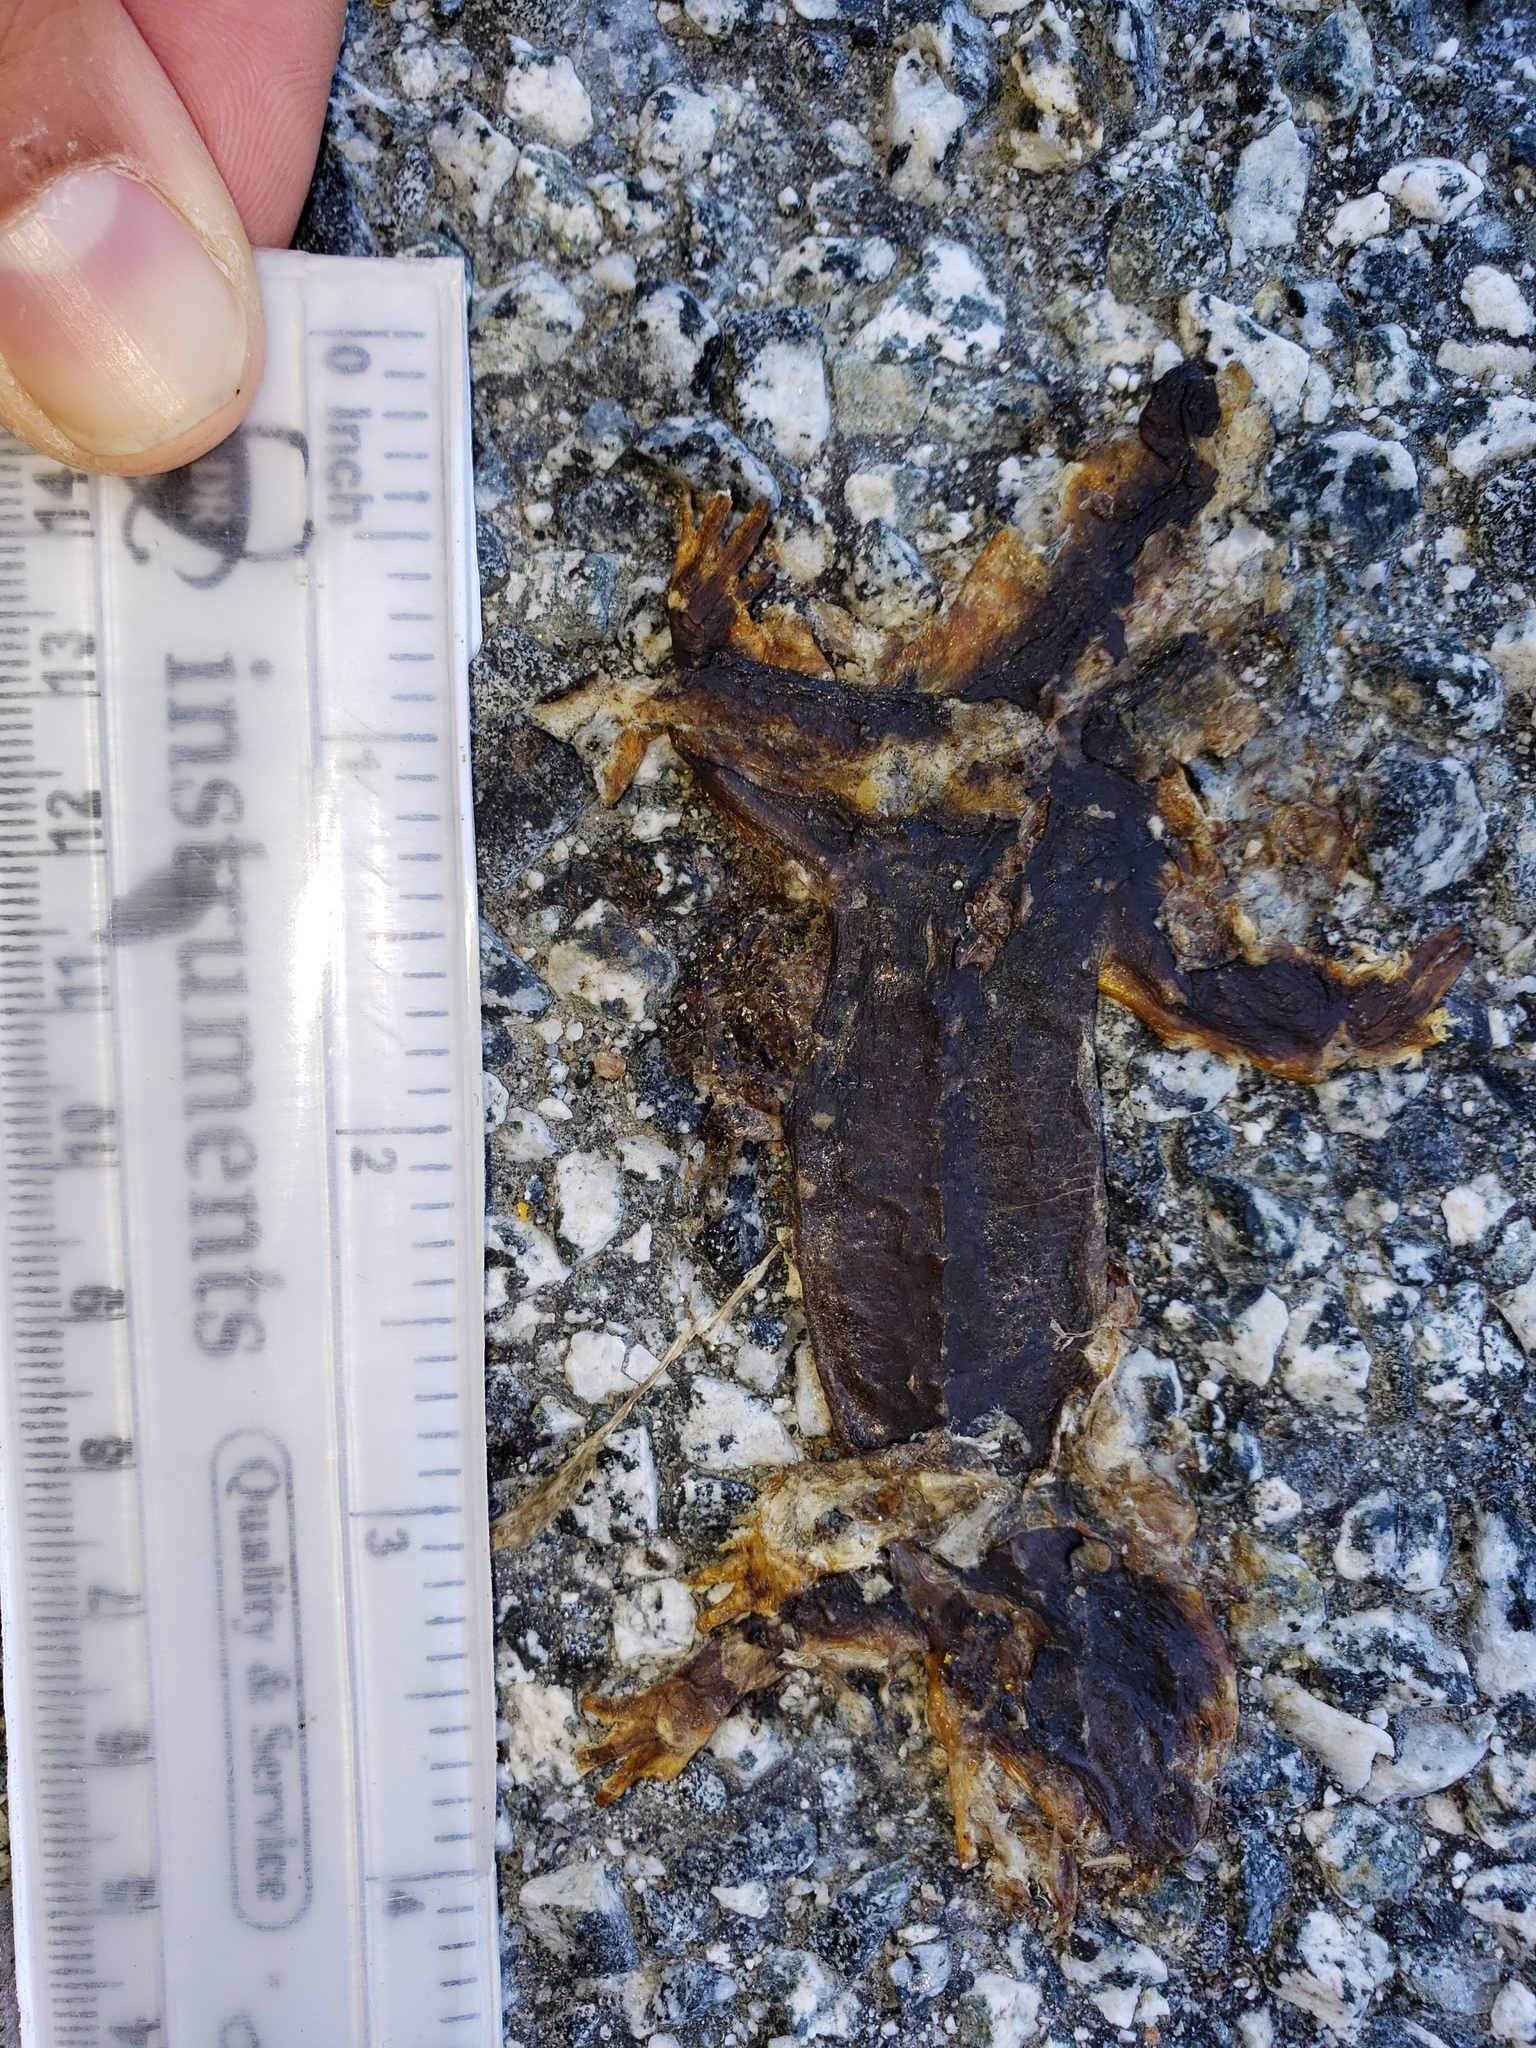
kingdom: Animalia
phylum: Chordata
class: Amphibia
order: Caudata
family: Salamandridae
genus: Taricha
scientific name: Taricha
